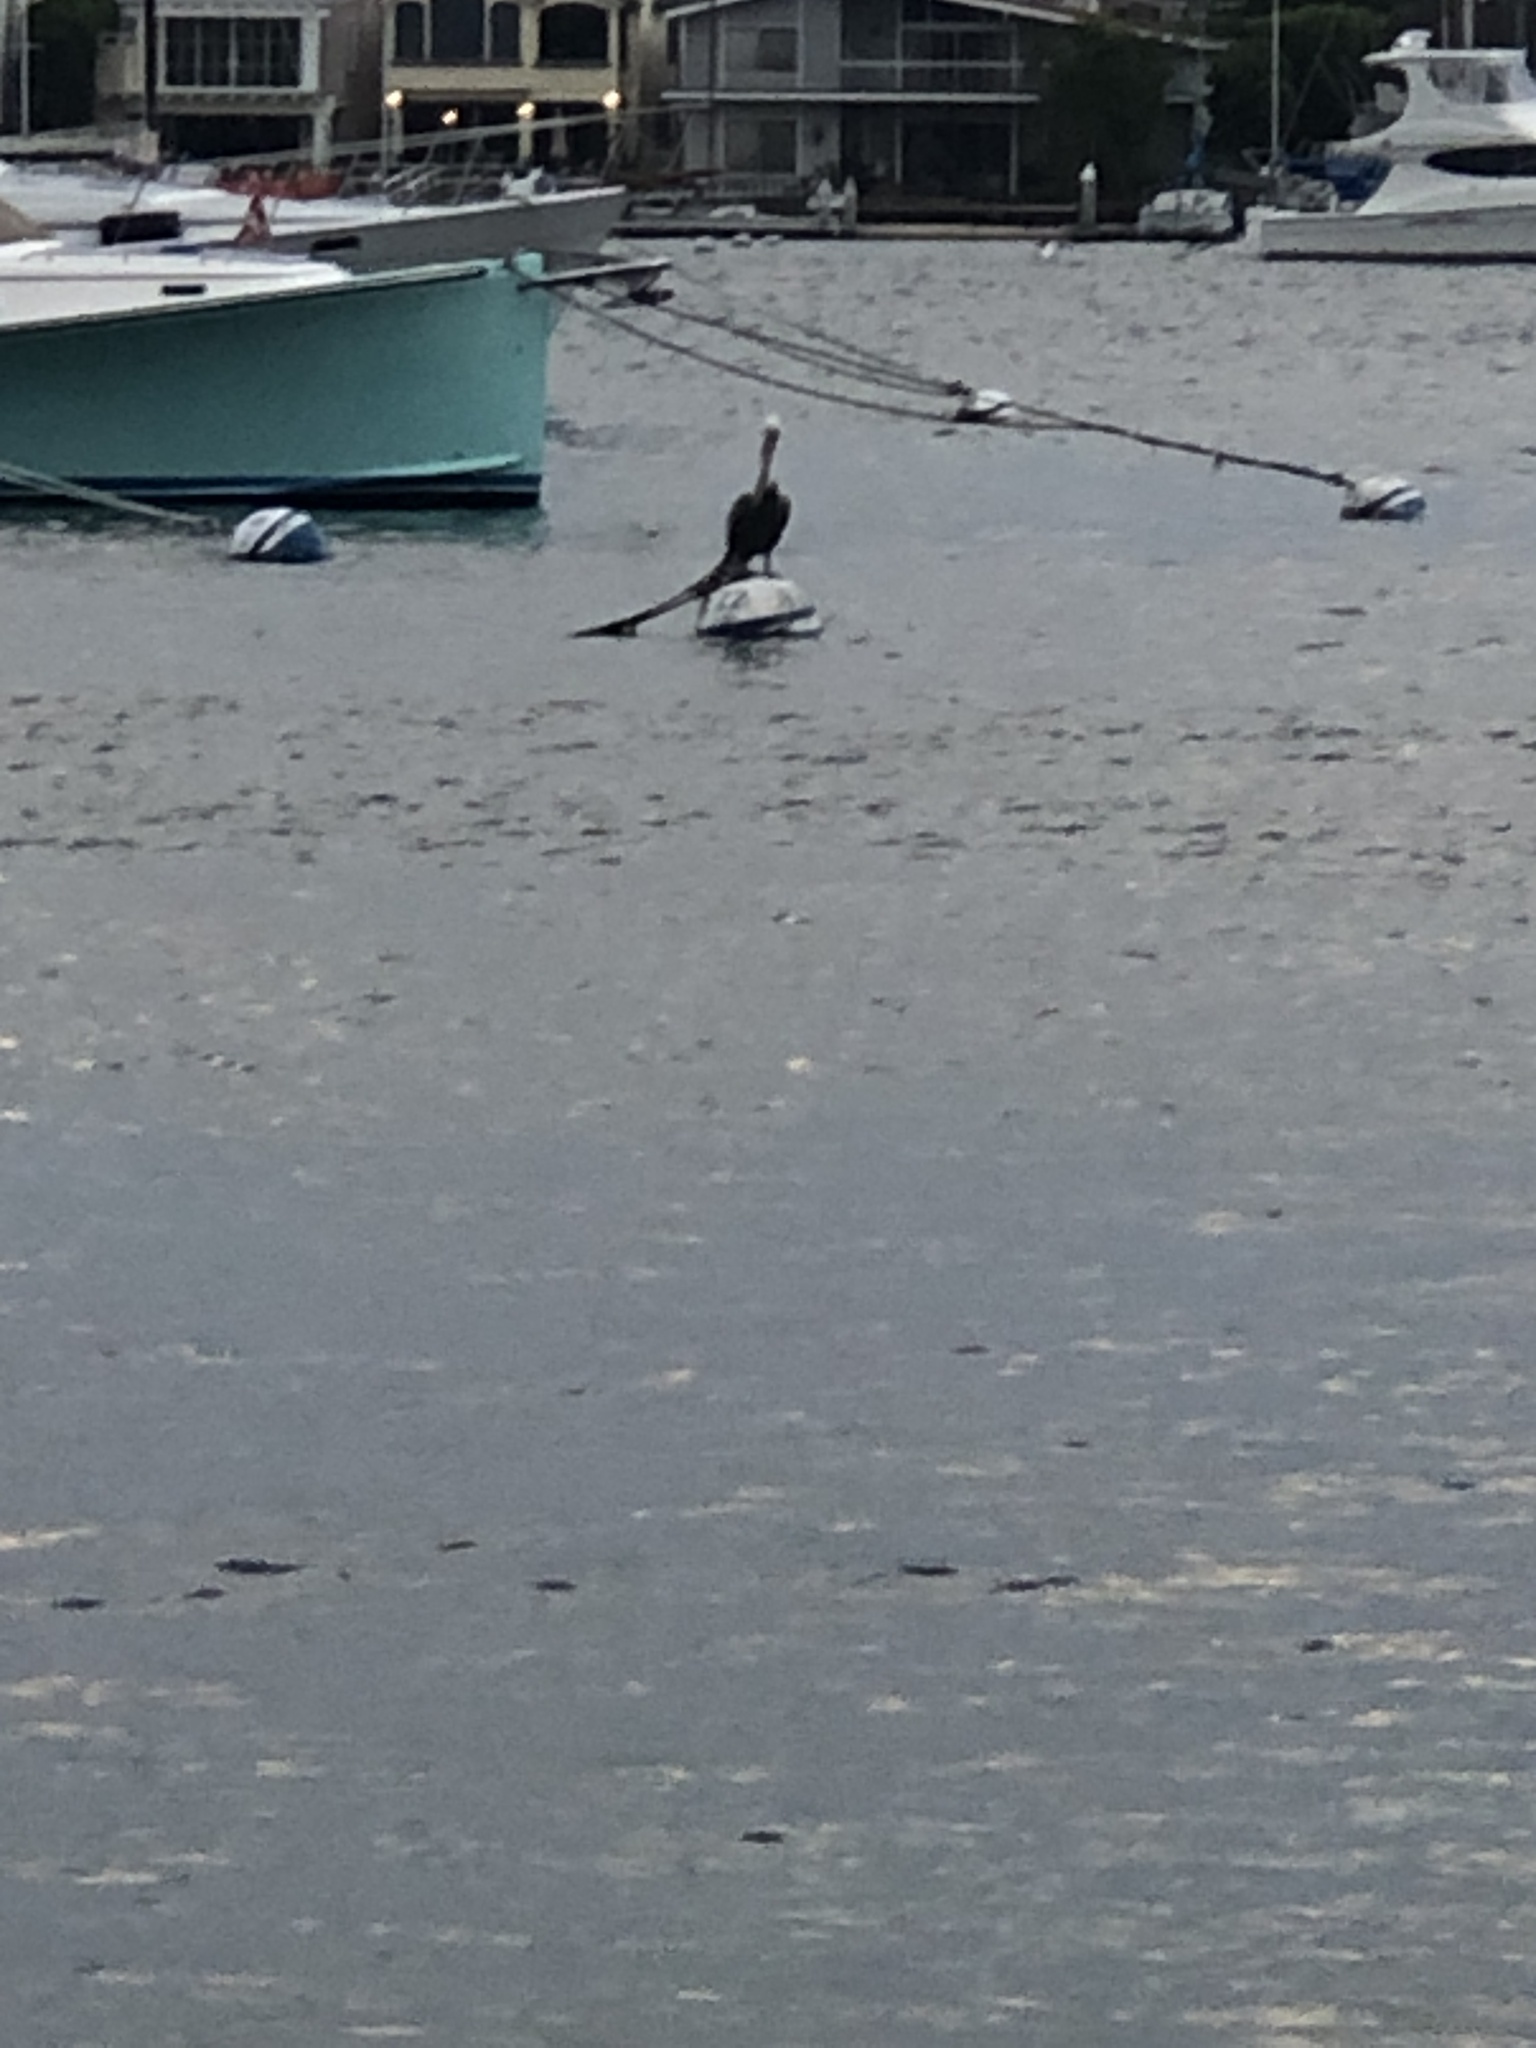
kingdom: Animalia
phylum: Chordata
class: Aves
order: Pelecaniformes
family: Pelecanidae
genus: Pelecanus
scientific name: Pelecanus occidentalis
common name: Brown pelican
